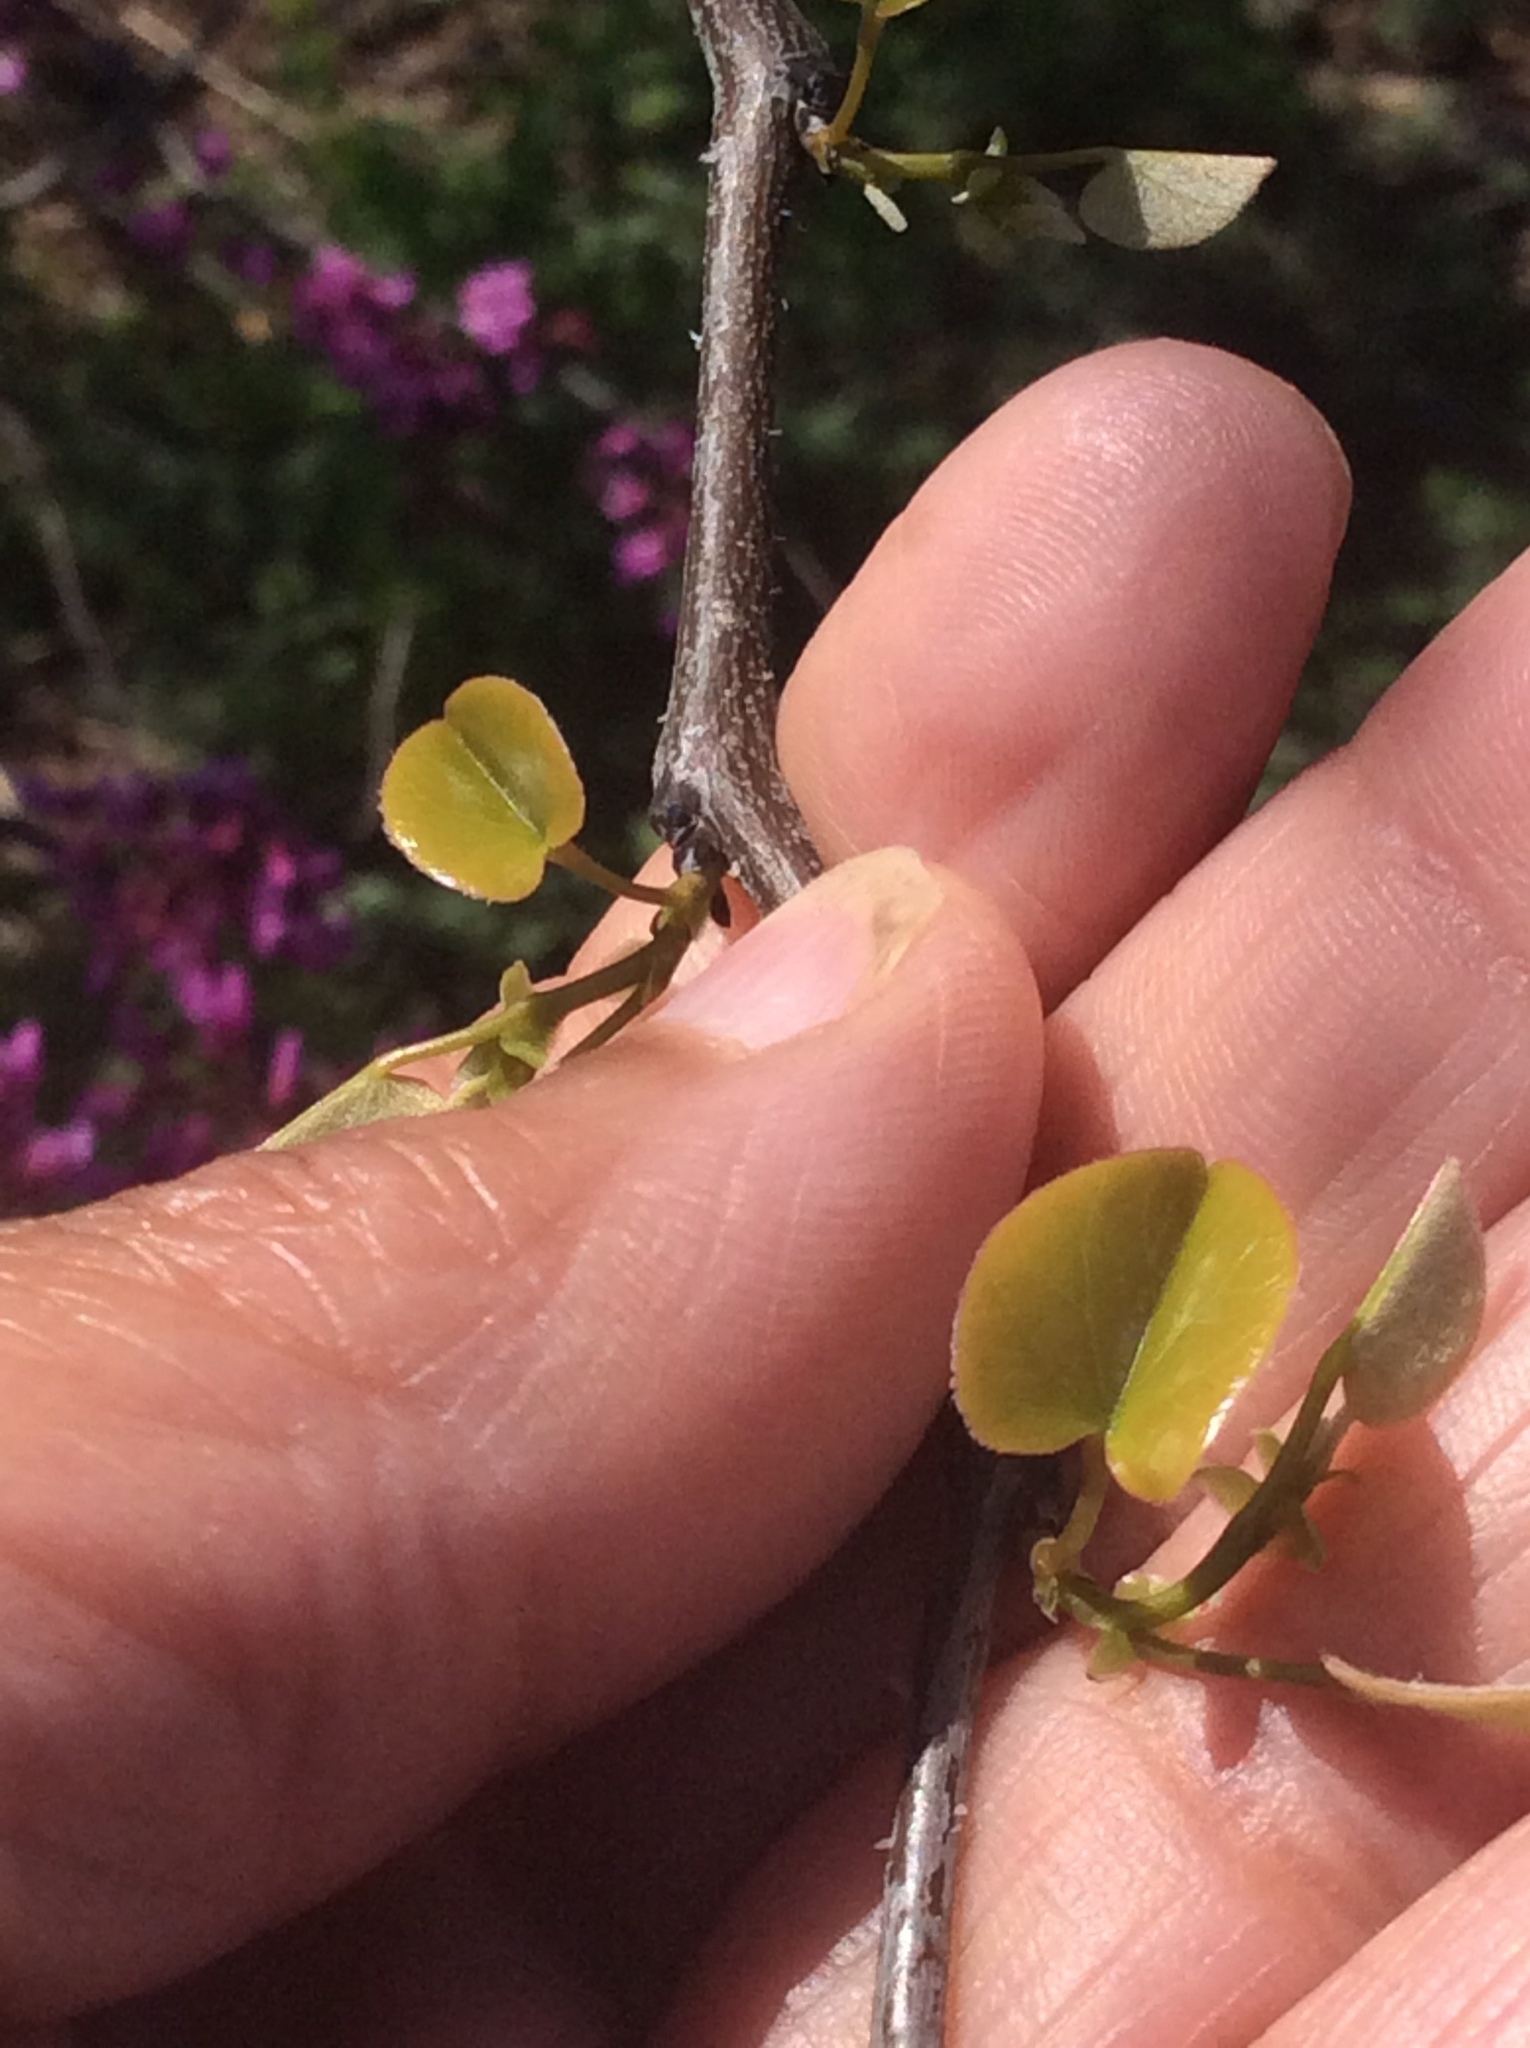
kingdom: Plantae
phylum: Tracheophyta
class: Magnoliopsida
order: Fabales
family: Fabaceae
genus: Cercis
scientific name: Cercis canadensis
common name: Eastern redbud
